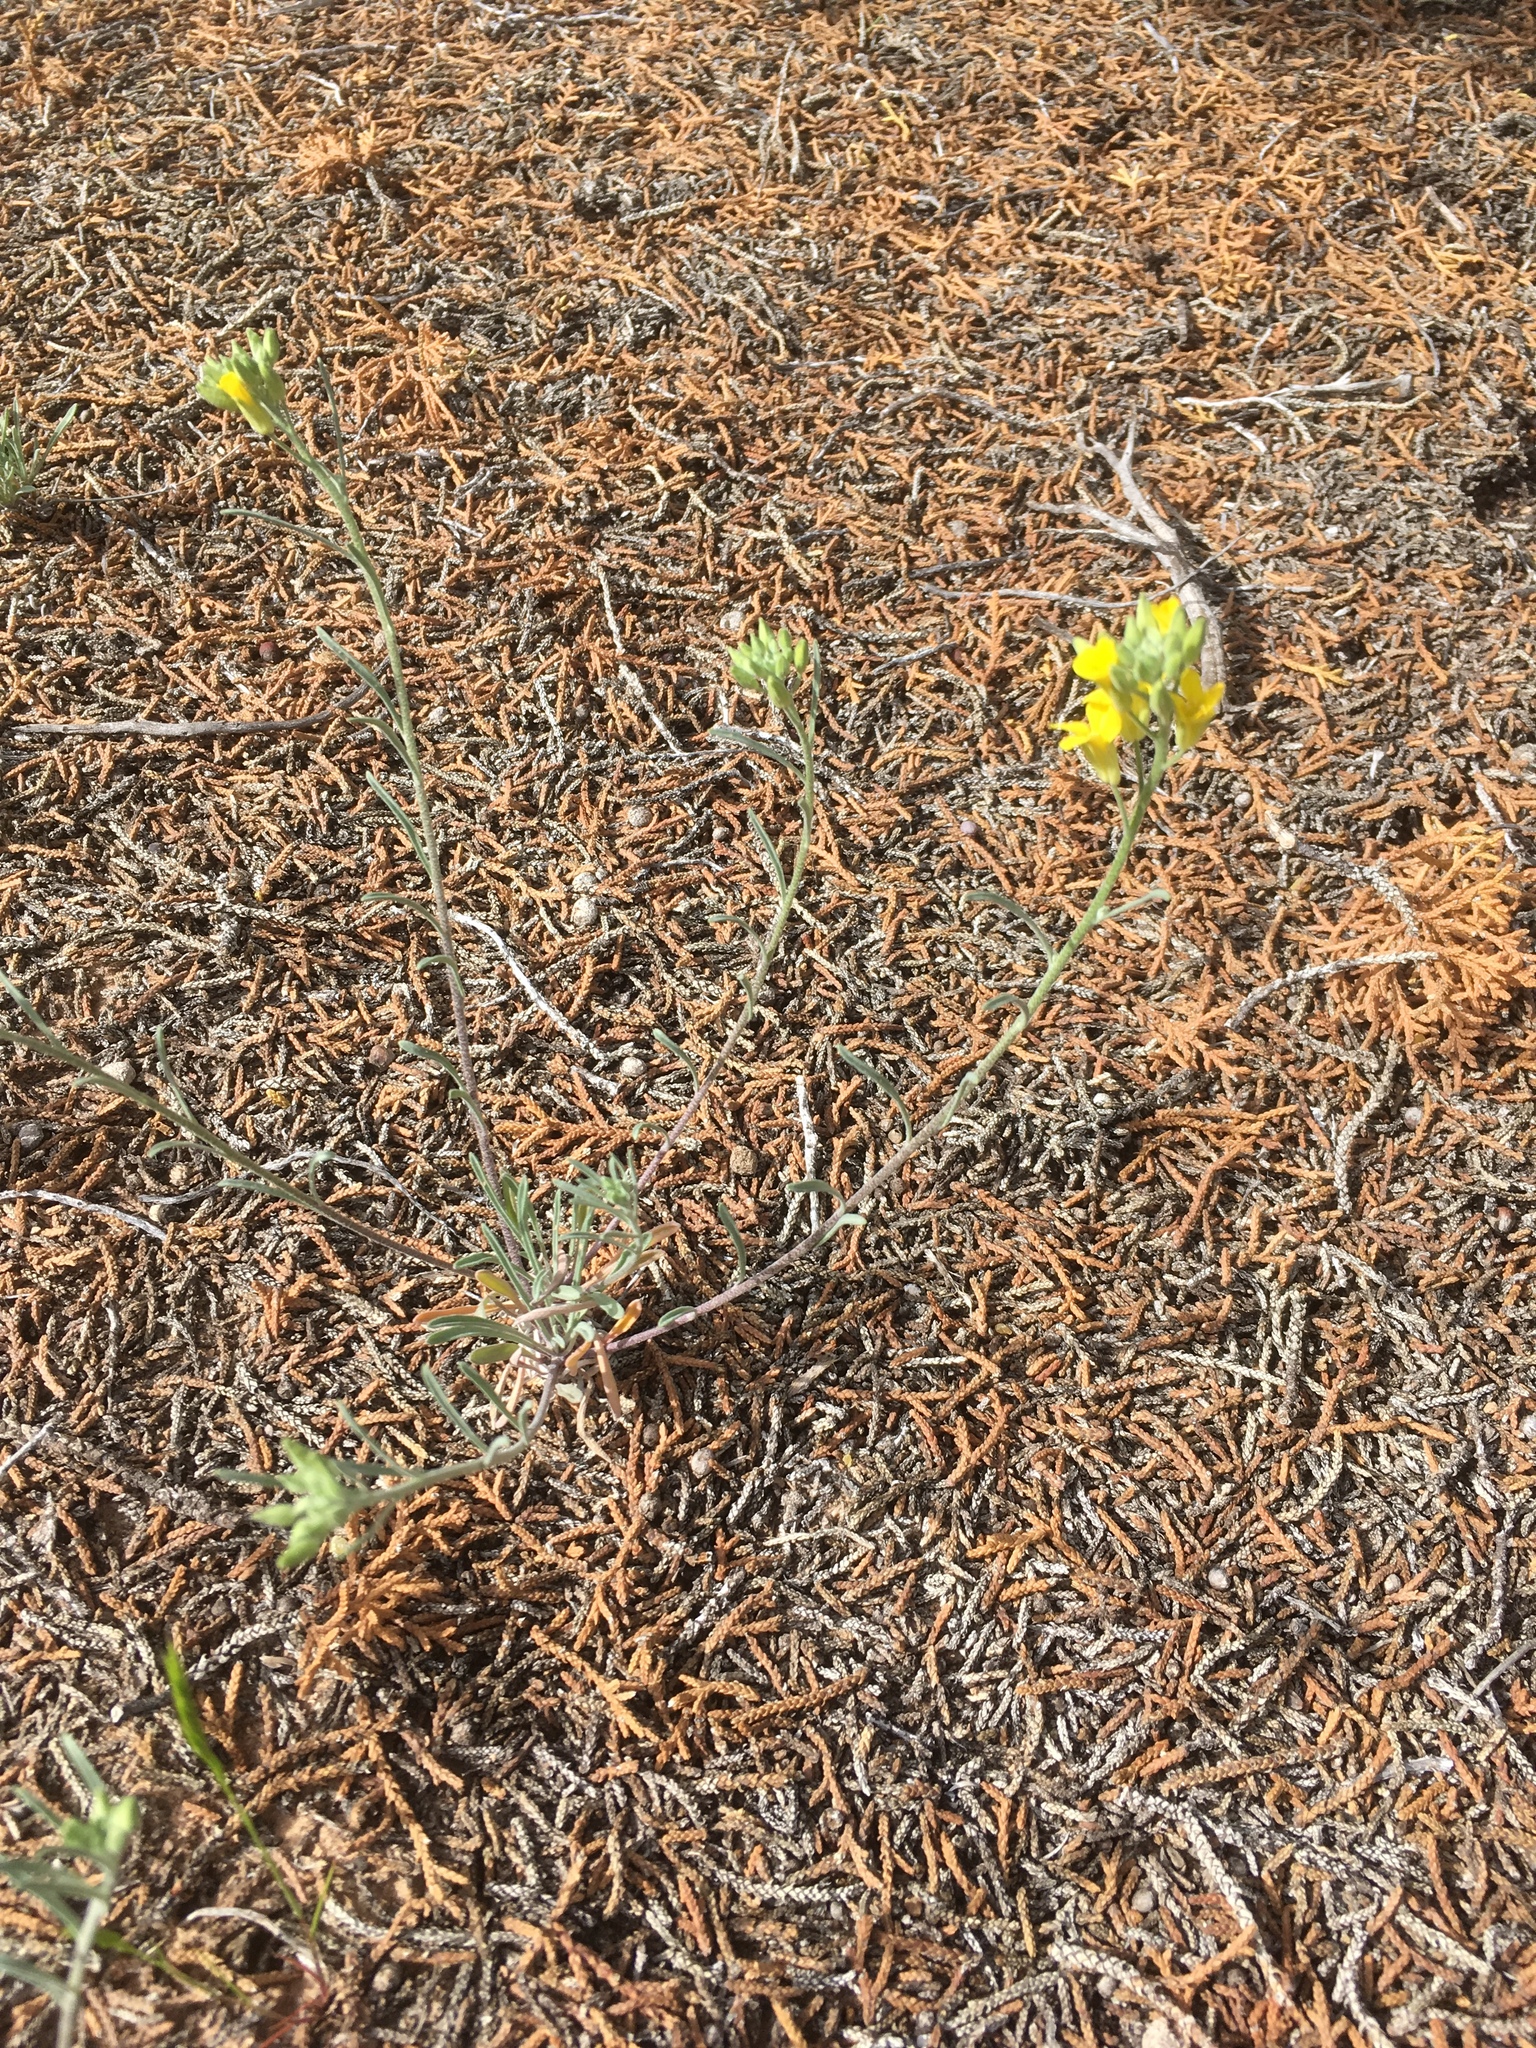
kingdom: Plantae
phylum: Tracheophyta
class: Magnoliopsida
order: Brassicales
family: Brassicaceae
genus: Physaria
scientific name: Physaria rectipes
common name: Colorado bladderpod
